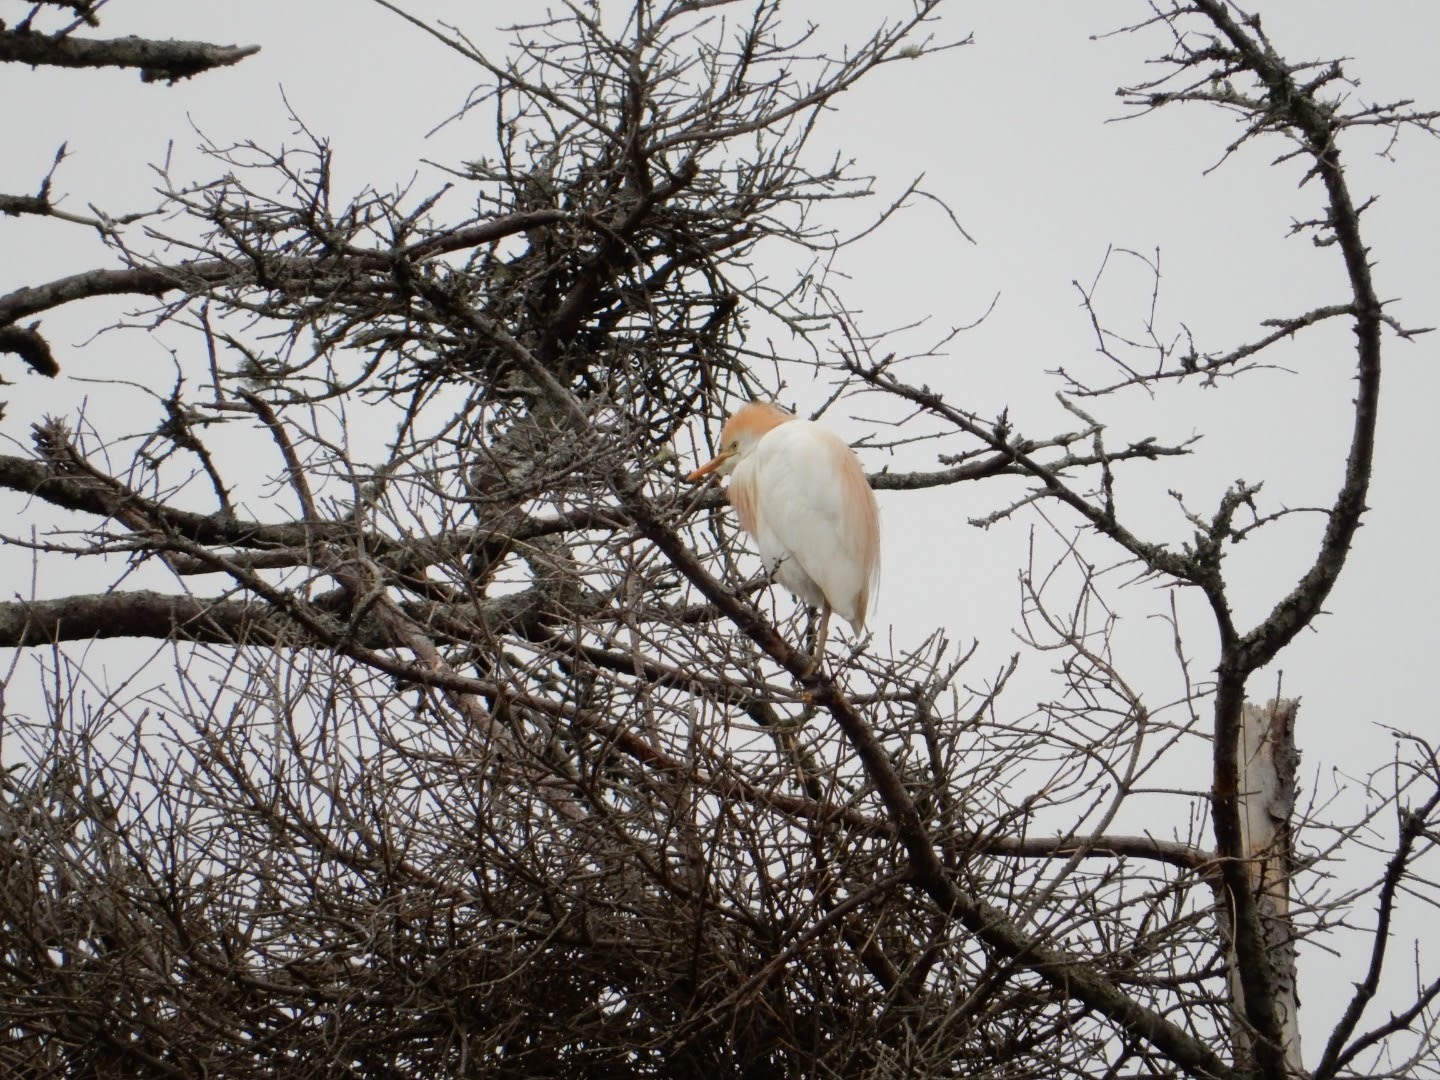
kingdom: Animalia
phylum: Chordata
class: Aves
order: Pelecaniformes
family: Ardeidae
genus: Bubulcus
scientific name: Bubulcus ibis
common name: Cattle egret
